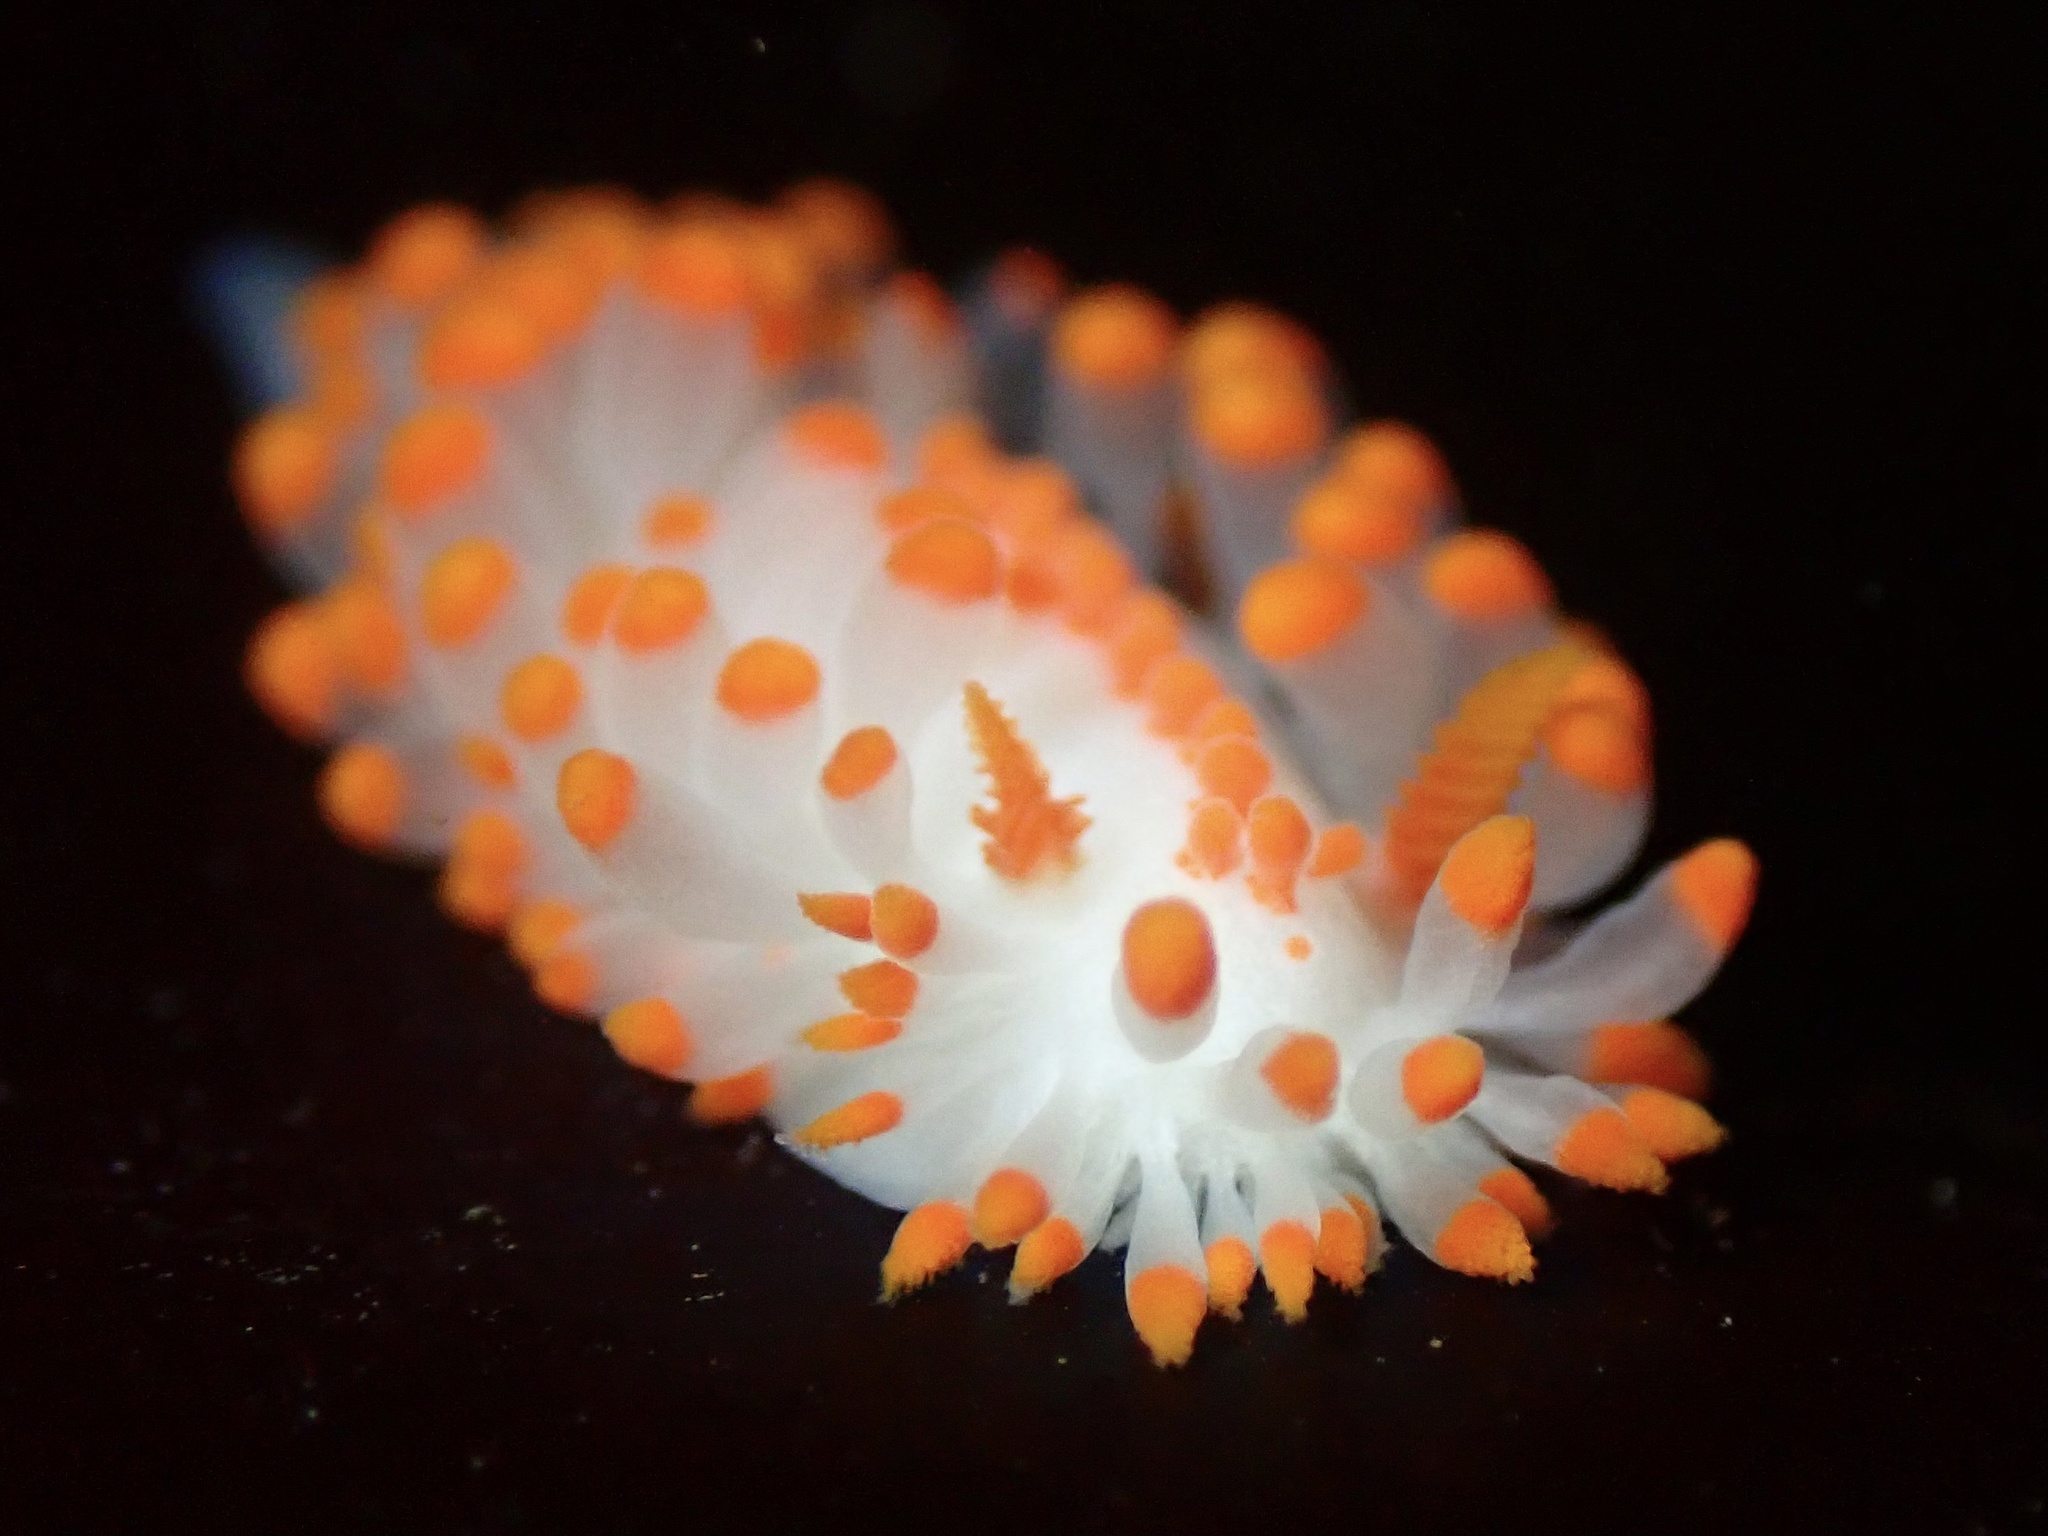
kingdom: Animalia
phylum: Mollusca
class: Gastropoda
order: Nudibranchia
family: Polyceridae
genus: Limacia
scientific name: Limacia mcdonaldi
